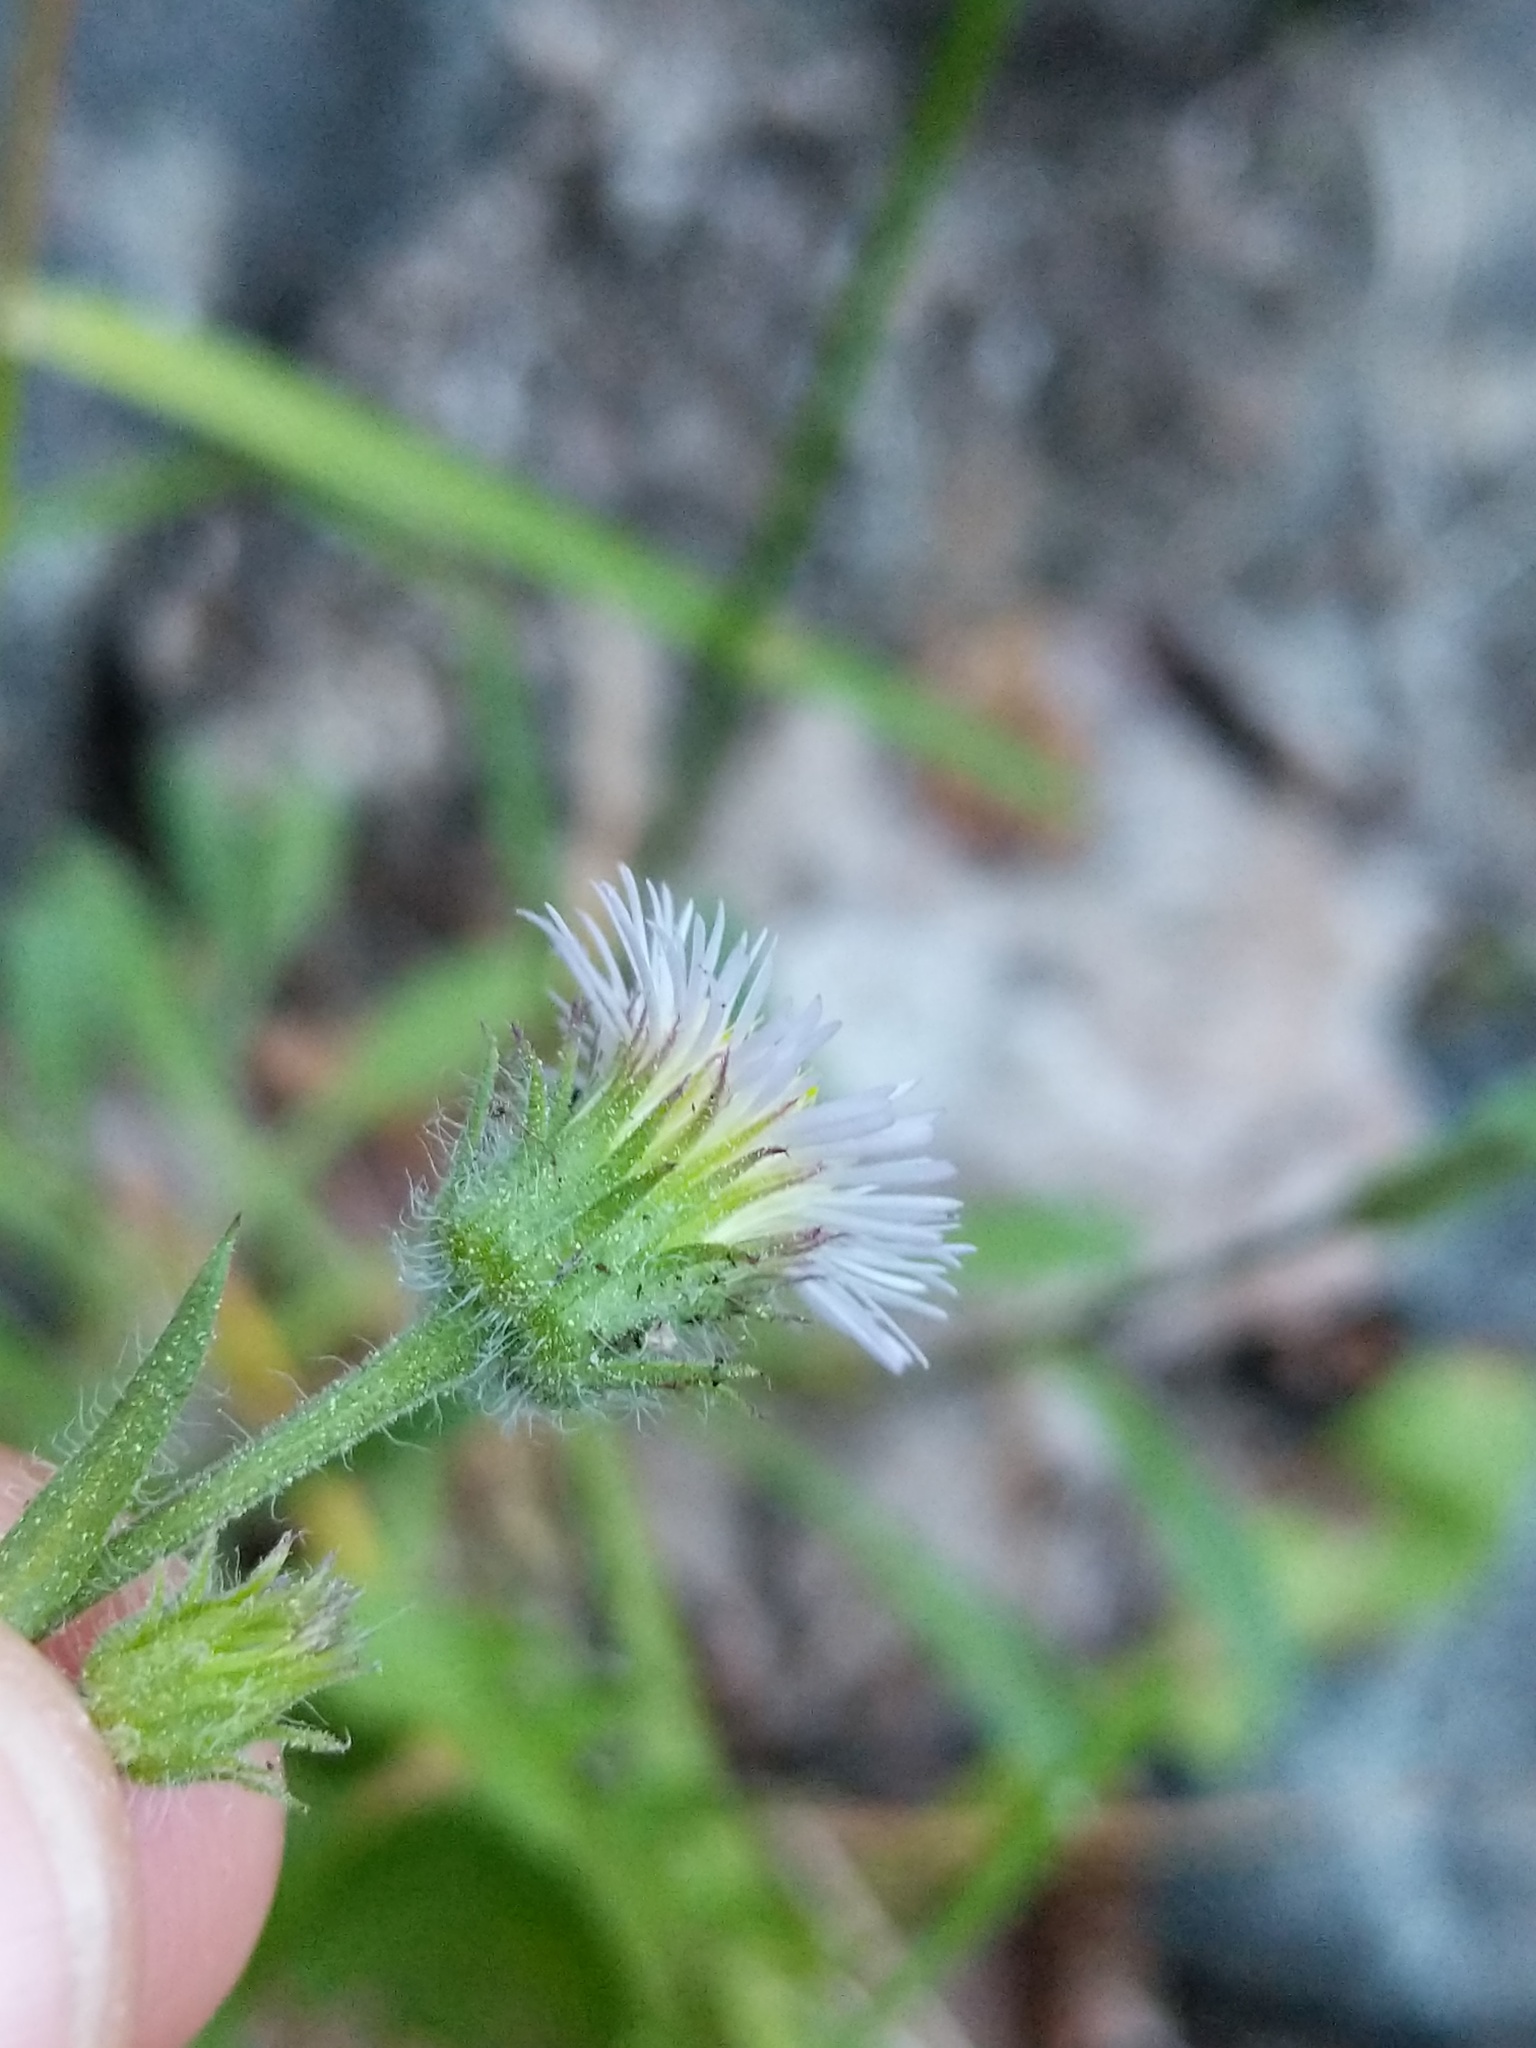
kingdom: Plantae
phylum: Tracheophyta
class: Magnoliopsida
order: Asterales
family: Asteraceae
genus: Erigeron
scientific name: Erigeron acris
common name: Blue fleabane
